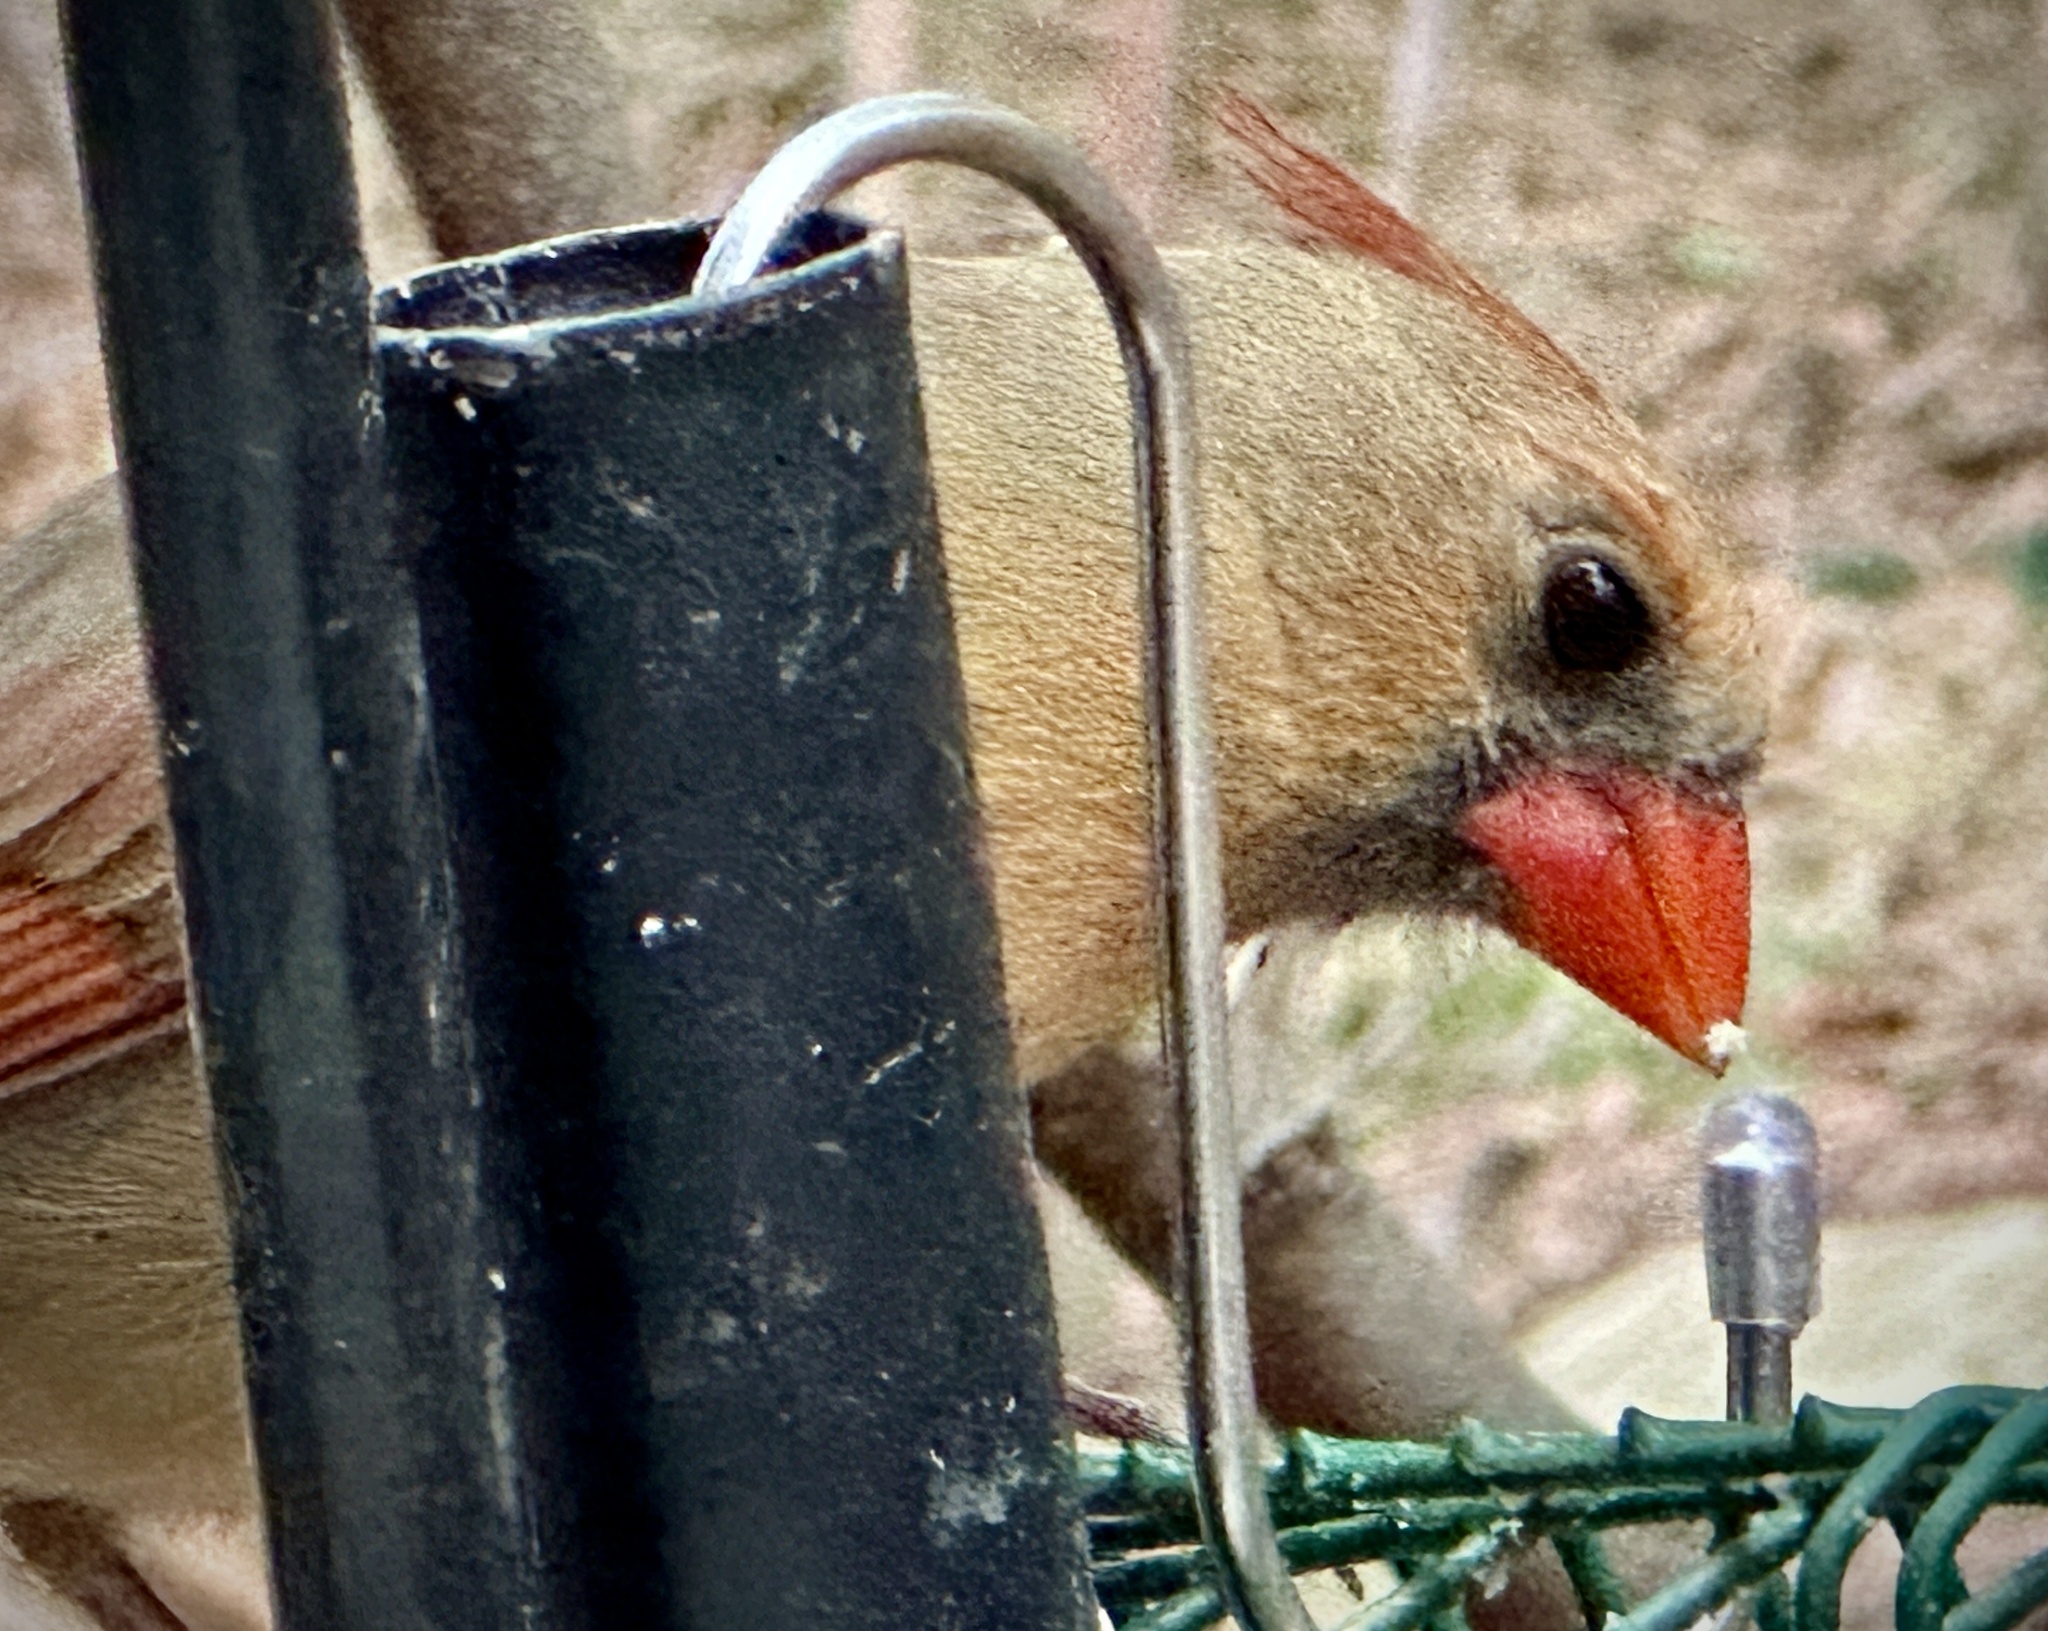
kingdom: Animalia
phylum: Chordata
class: Aves
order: Passeriformes
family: Cardinalidae
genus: Cardinalis
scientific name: Cardinalis cardinalis
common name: Northern cardinal
